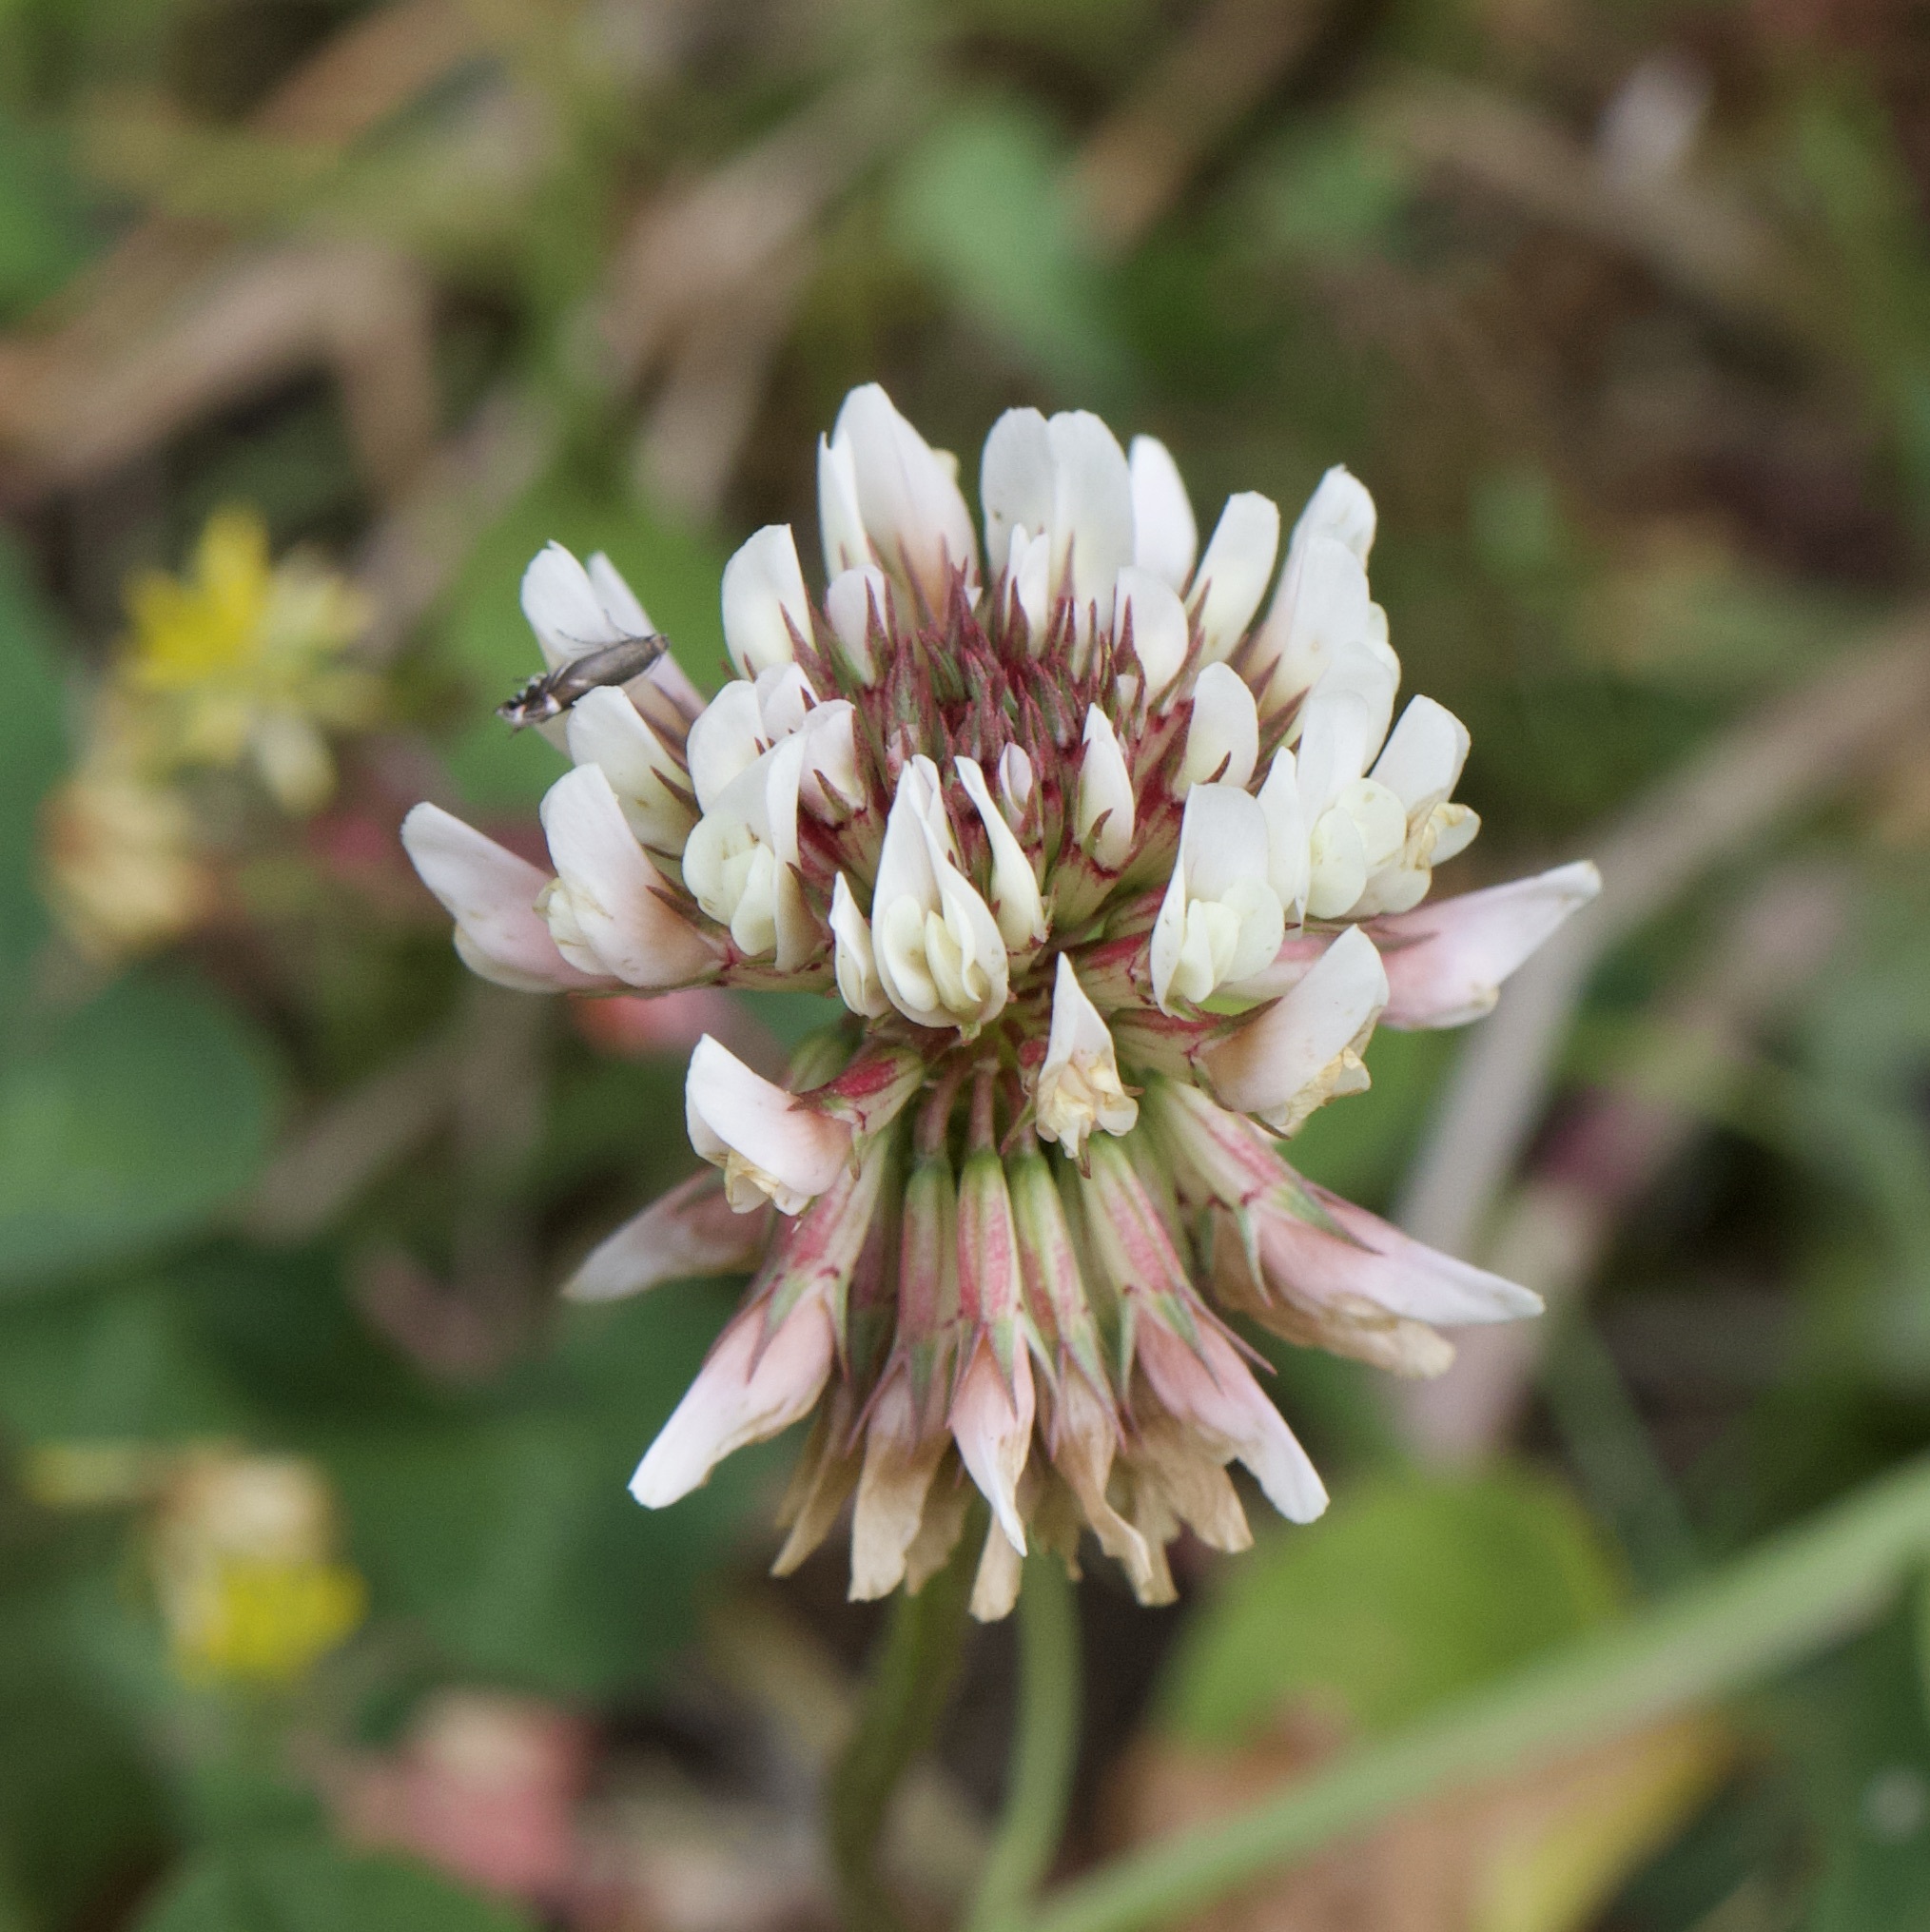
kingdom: Plantae
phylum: Tracheophyta
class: Magnoliopsida
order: Fabales
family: Fabaceae
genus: Trifolium
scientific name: Trifolium repens
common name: White clover
